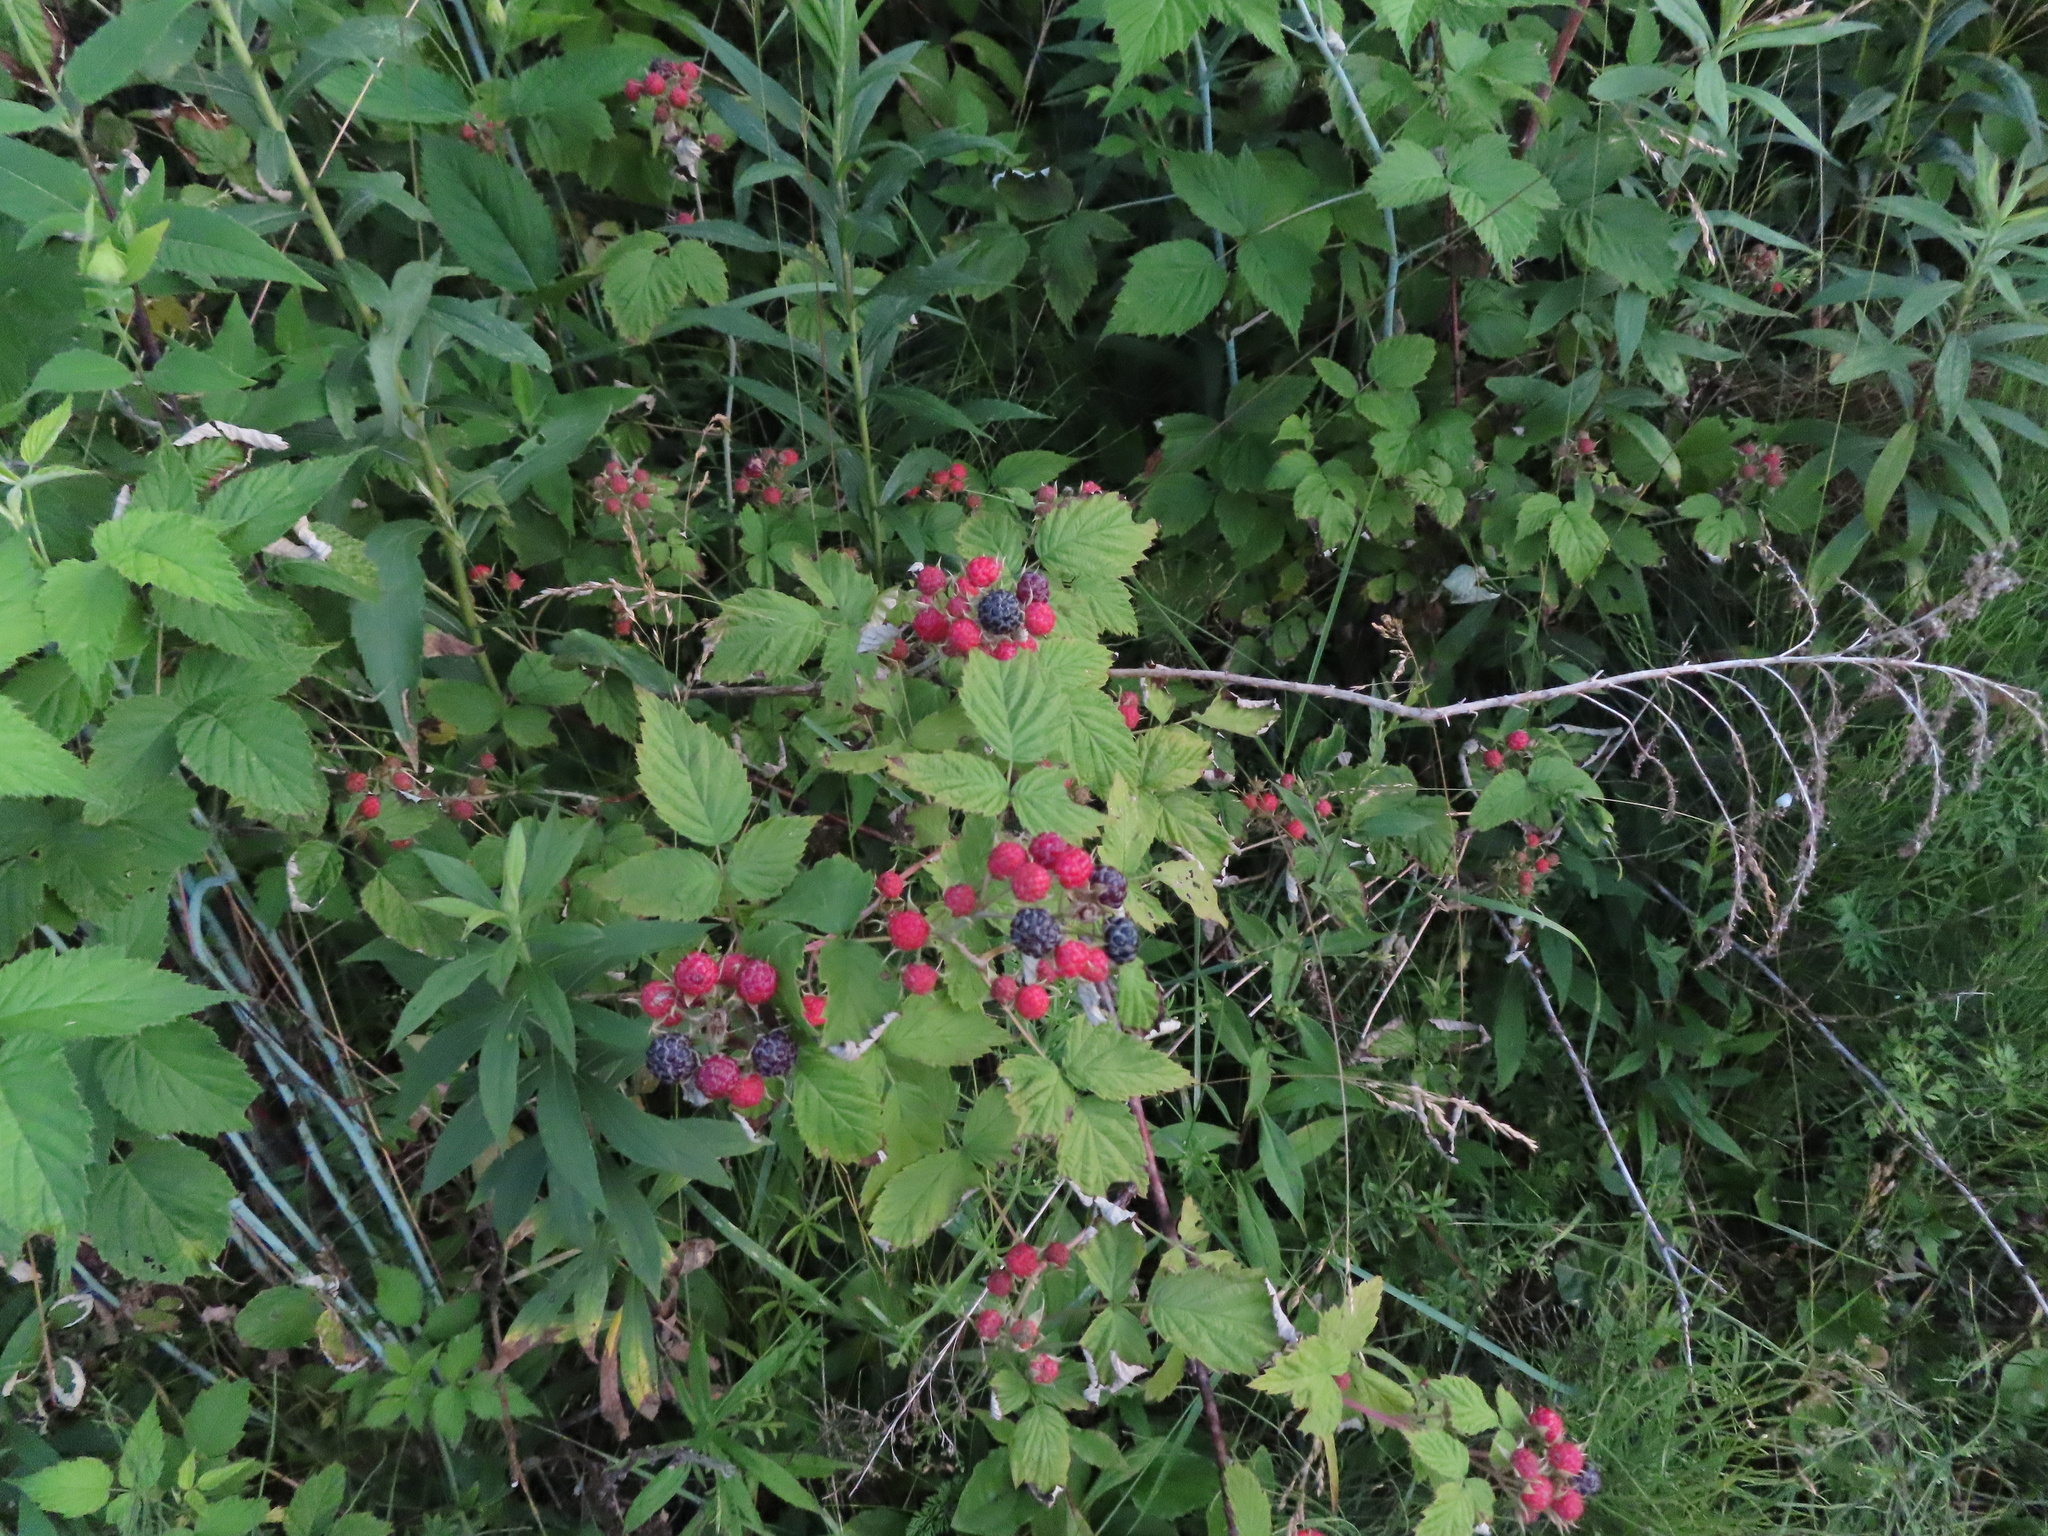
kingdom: Plantae
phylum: Tracheophyta
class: Magnoliopsida
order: Rosales
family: Rosaceae
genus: Rubus
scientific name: Rubus occidentalis
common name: Black raspberry
